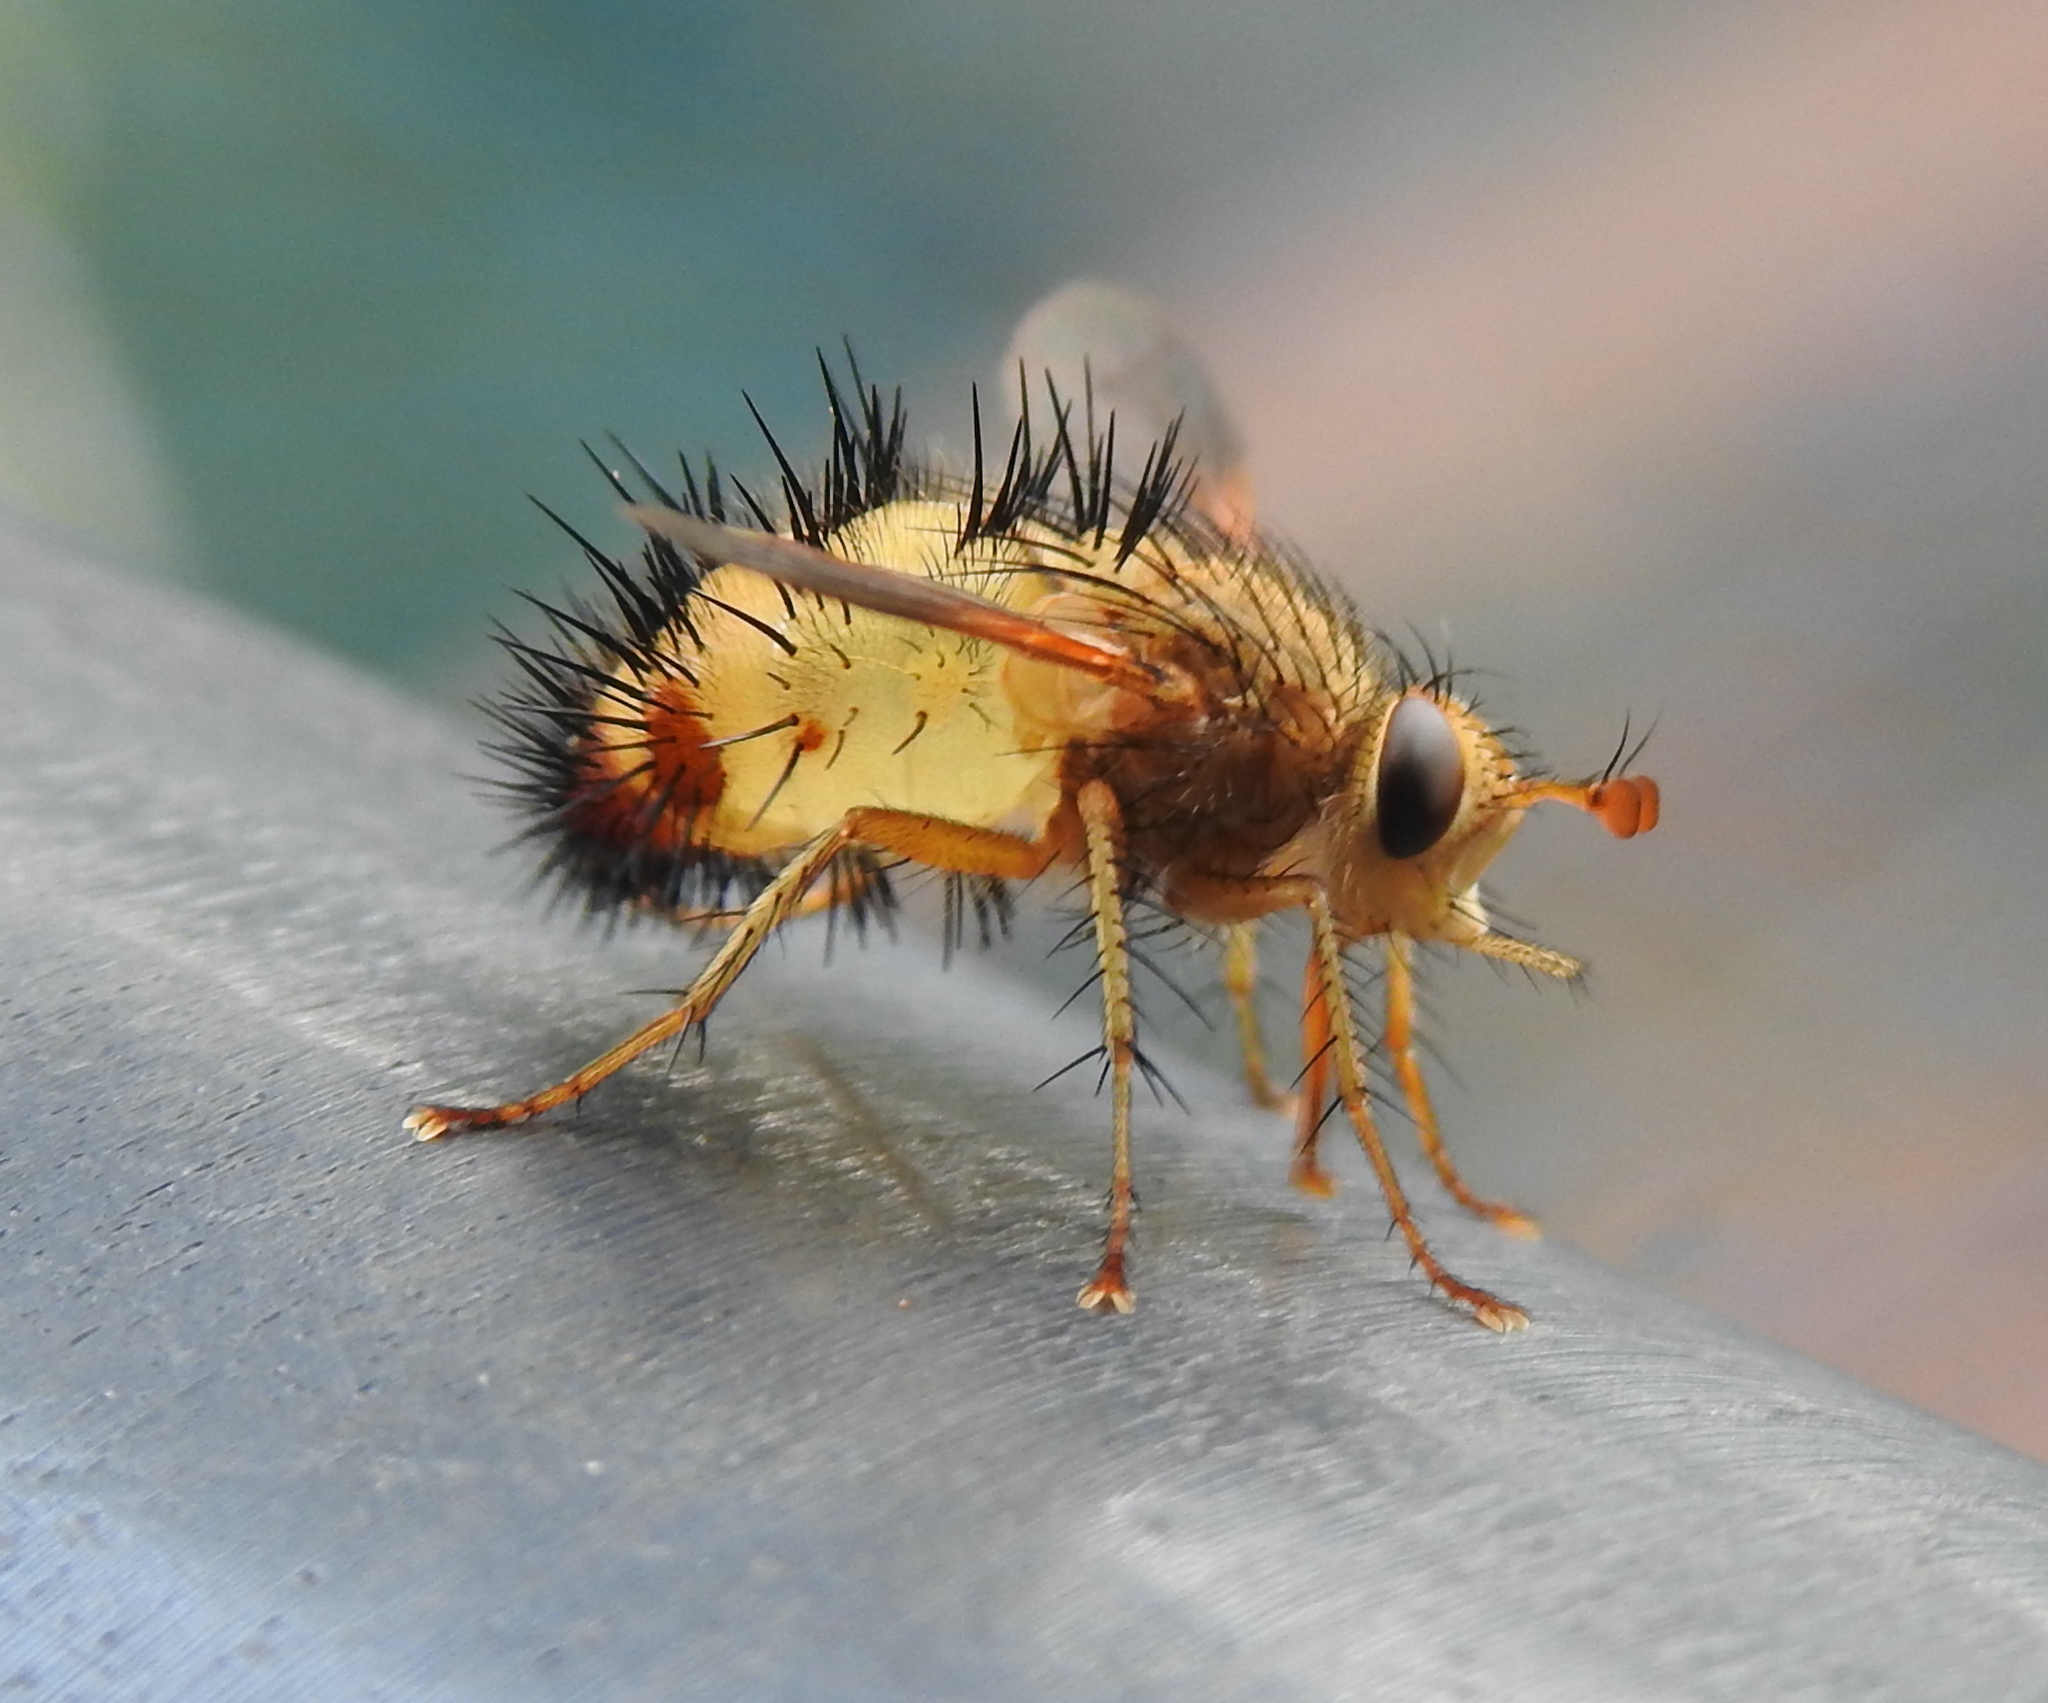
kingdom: Animalia
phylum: Arthropoda
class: Insecta
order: Diptera
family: Tachinidae
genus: Dejeania
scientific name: Dejeania bombylans
